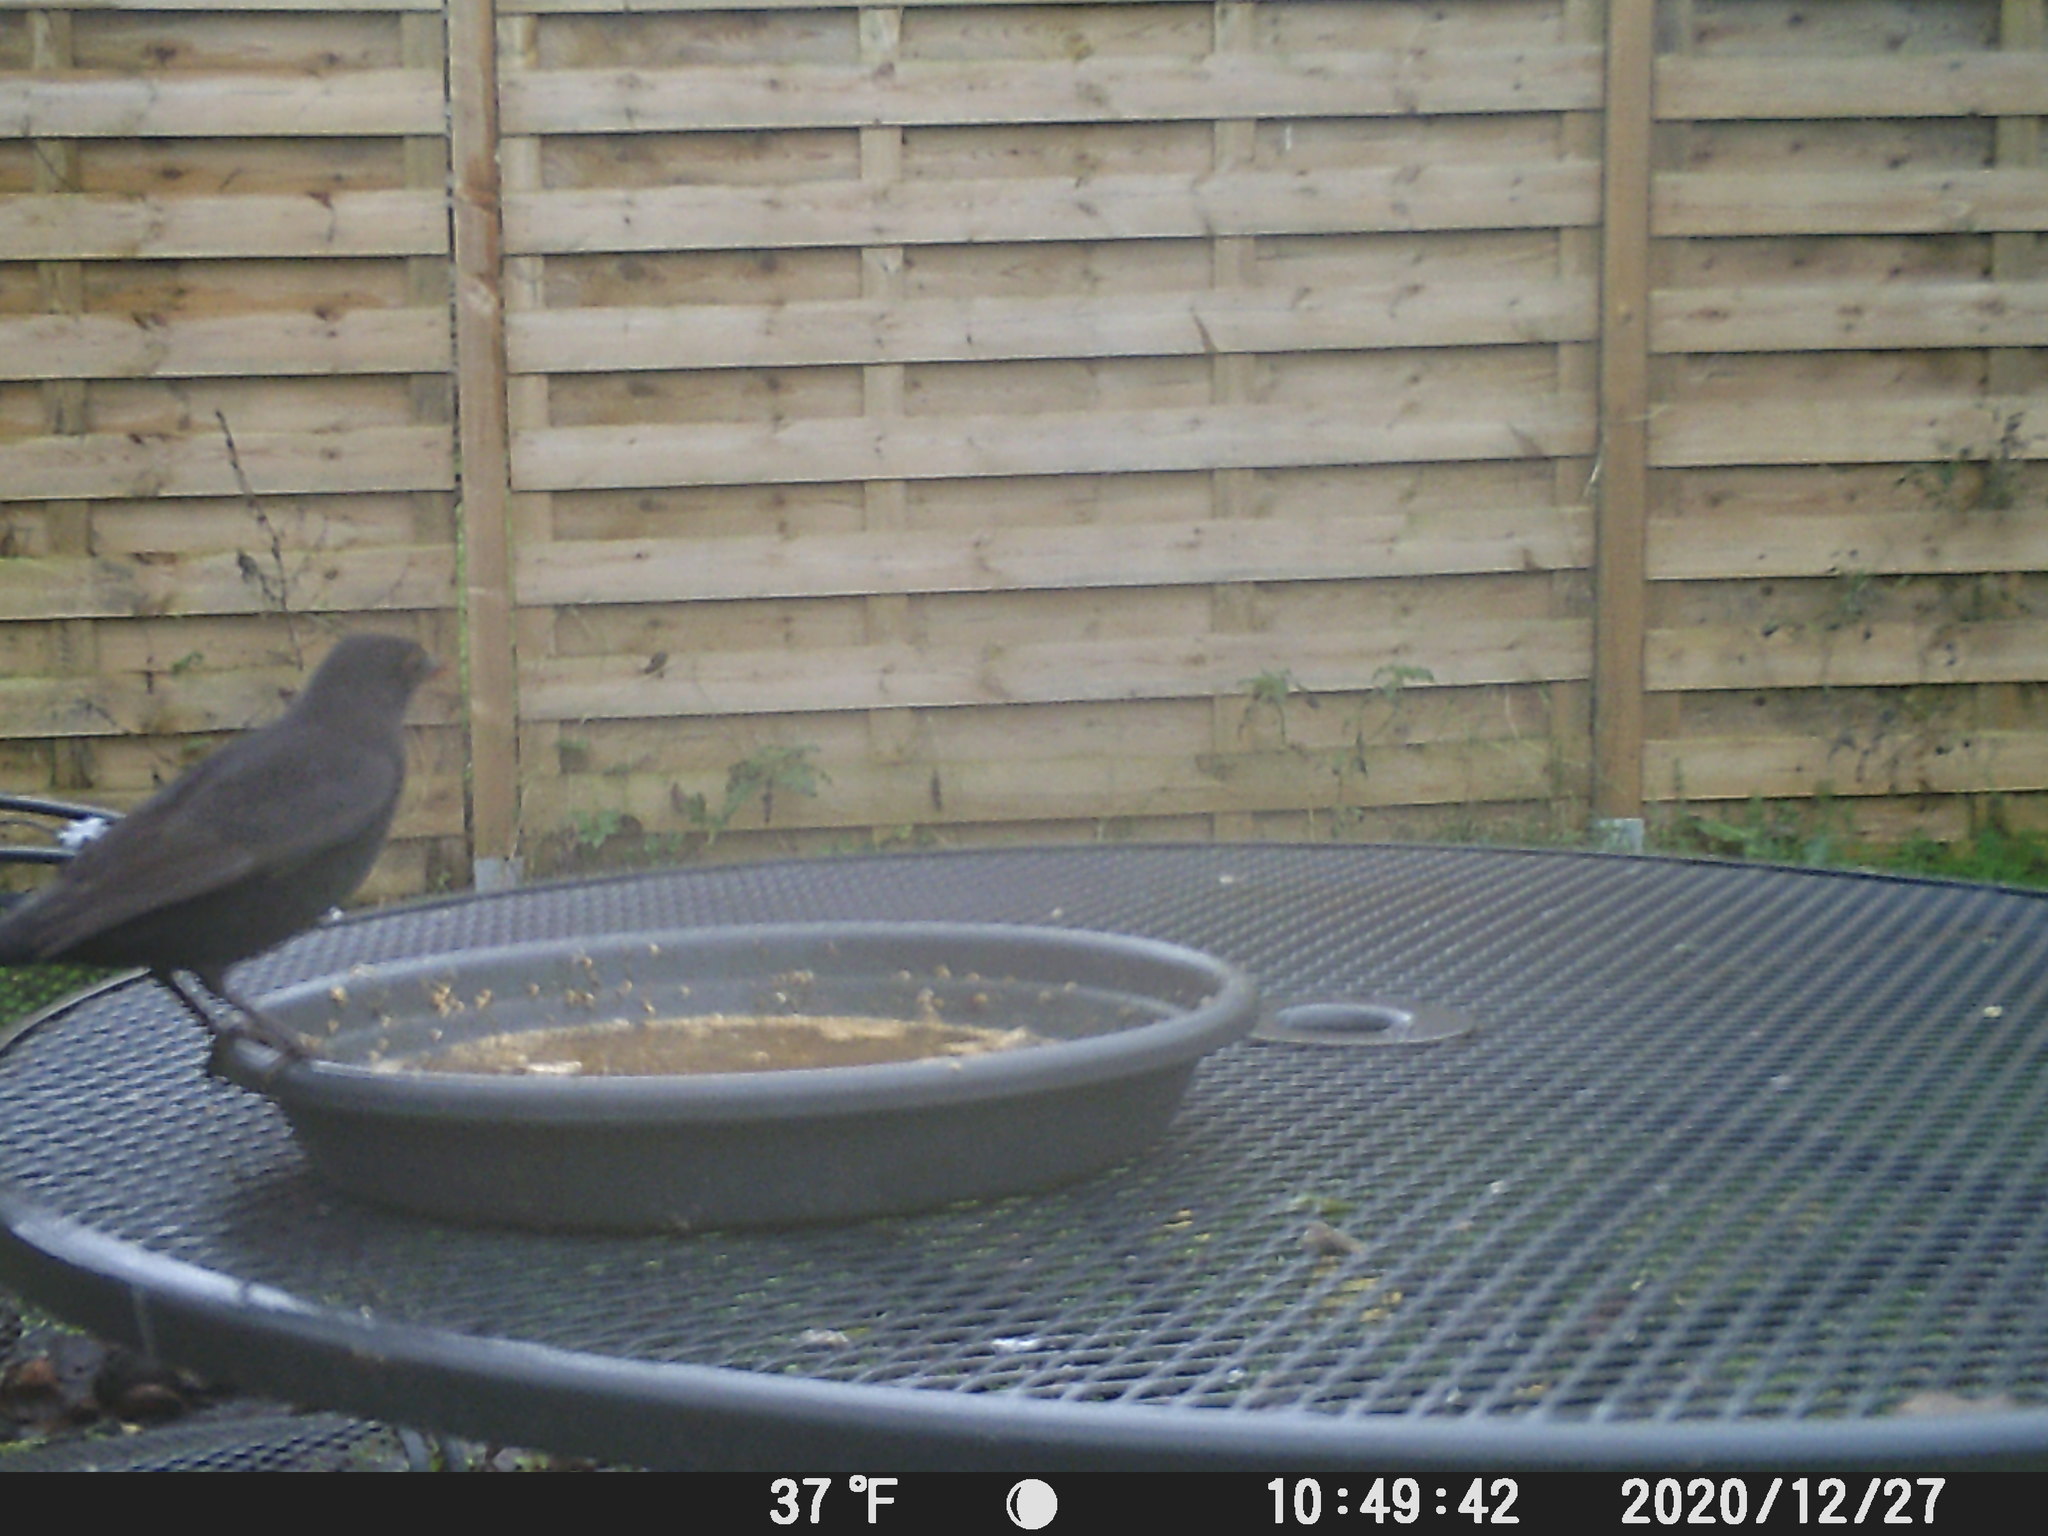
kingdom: Animalia
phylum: Chordata
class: Aves
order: Passeriformes
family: Turdidae
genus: Turdus
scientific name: Turdus merula
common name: Common blackbird
